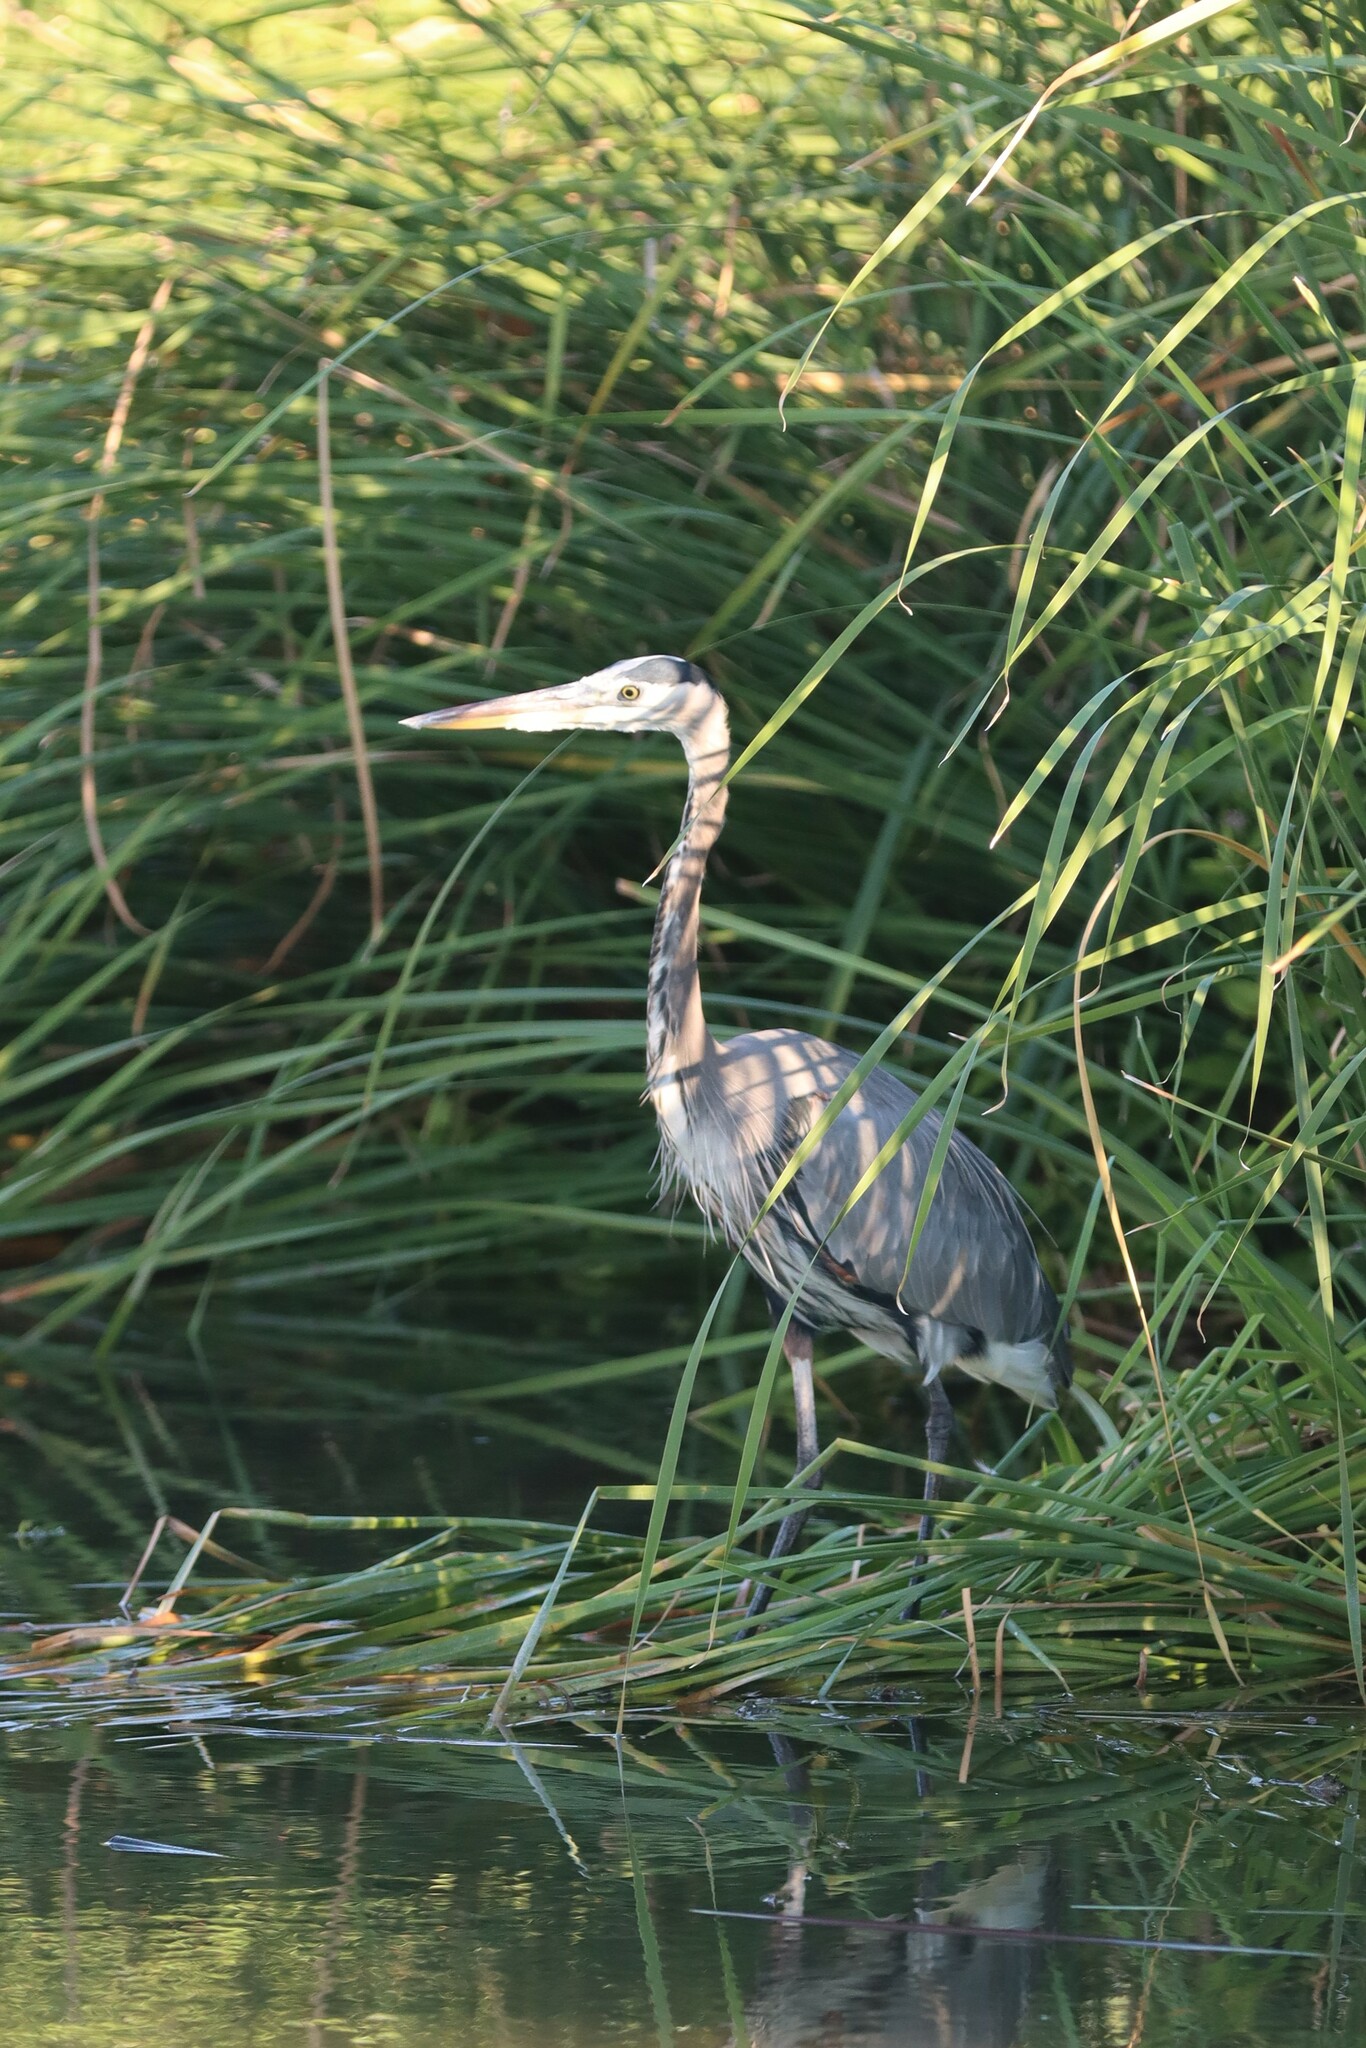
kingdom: Animalia
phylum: Chordata
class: Aves
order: Pelecaniformes
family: Ardeidae
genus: Ardea
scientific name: Ardea herodias
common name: Great blue heron
